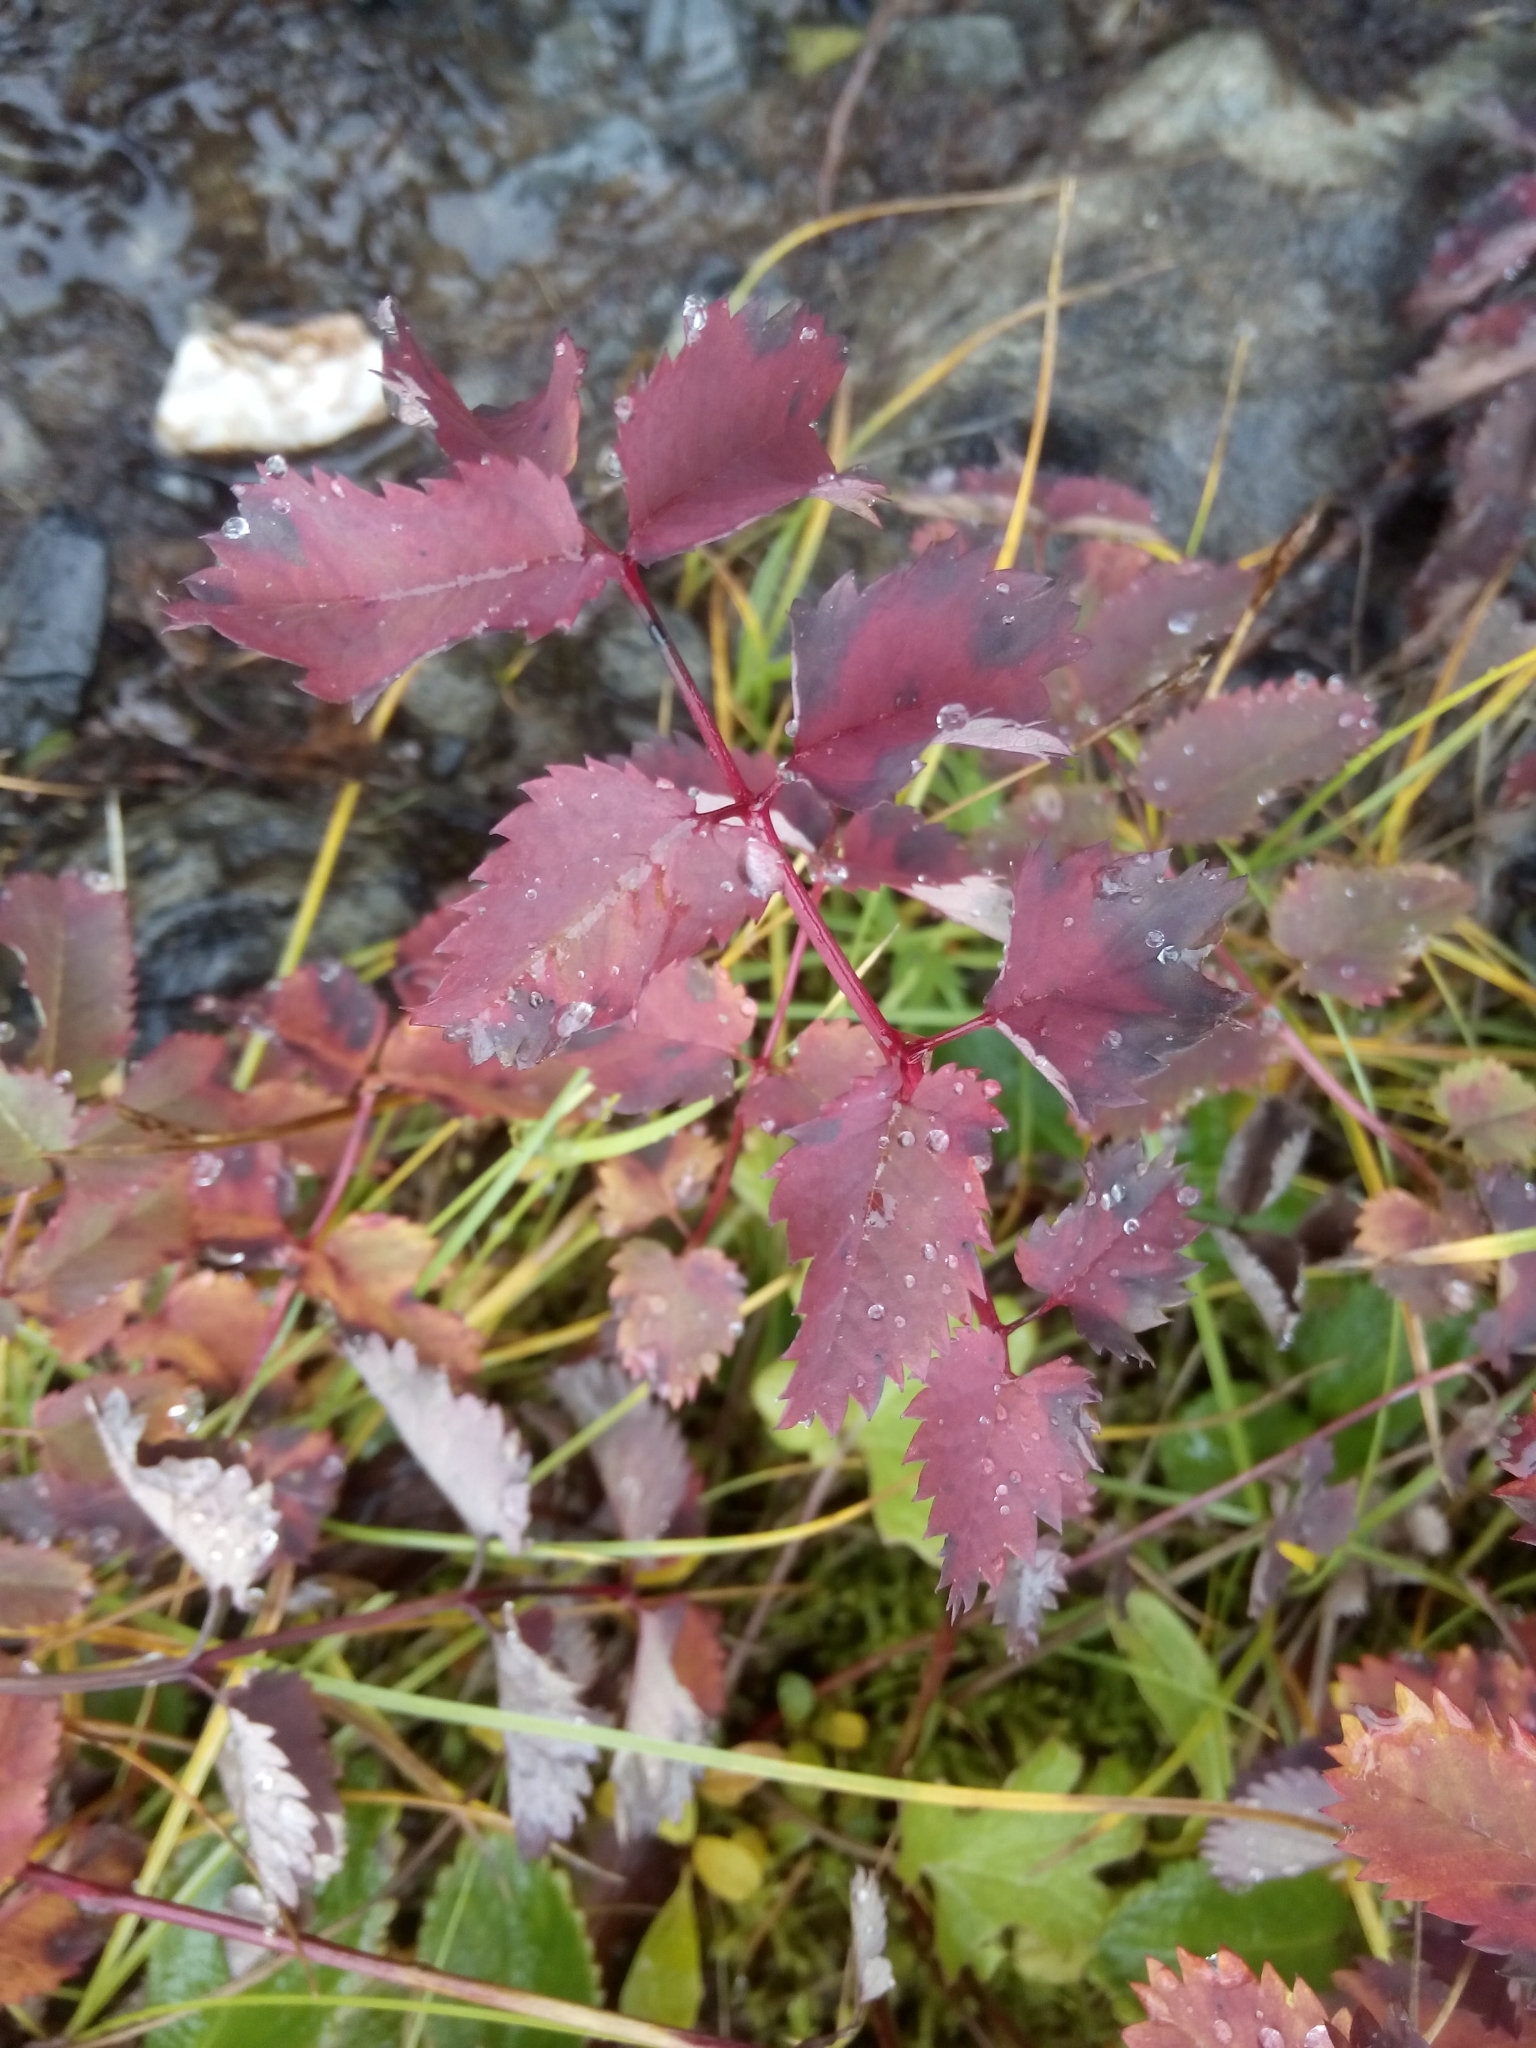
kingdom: Plantae
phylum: Tracheophyta
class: Magnoliopsida
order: Rosales
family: Rosaceae
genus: Sanguisorba
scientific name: Sanguisorba stipulata
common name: Sitka burnet
